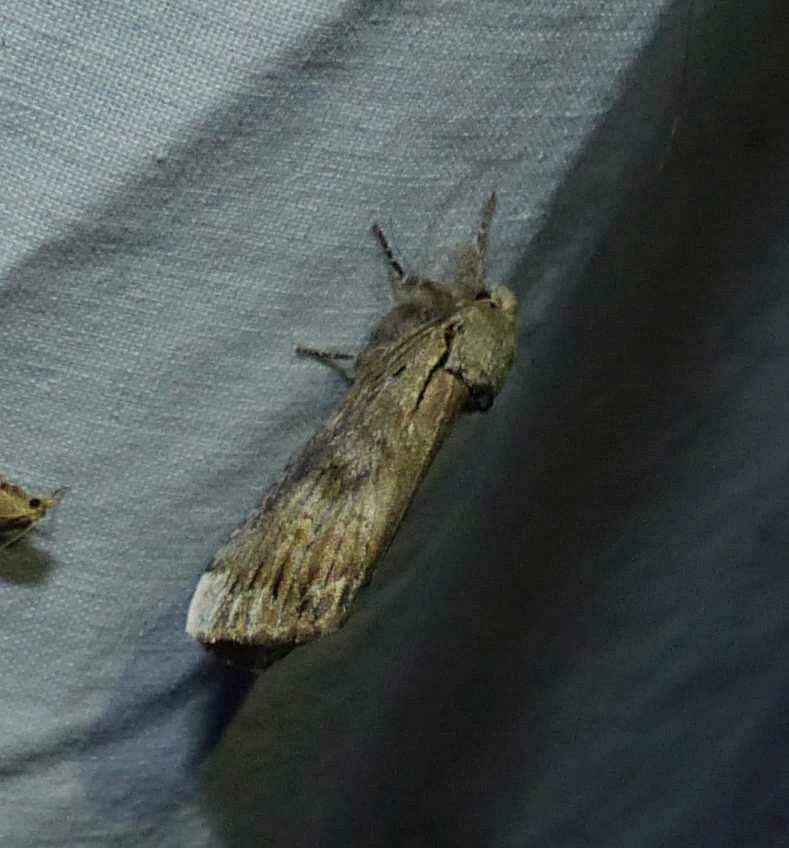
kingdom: Animalia
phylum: Arthropoda
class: Insecta
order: Lepidoptera
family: Notodontidae
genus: Schizura
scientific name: Schizura
